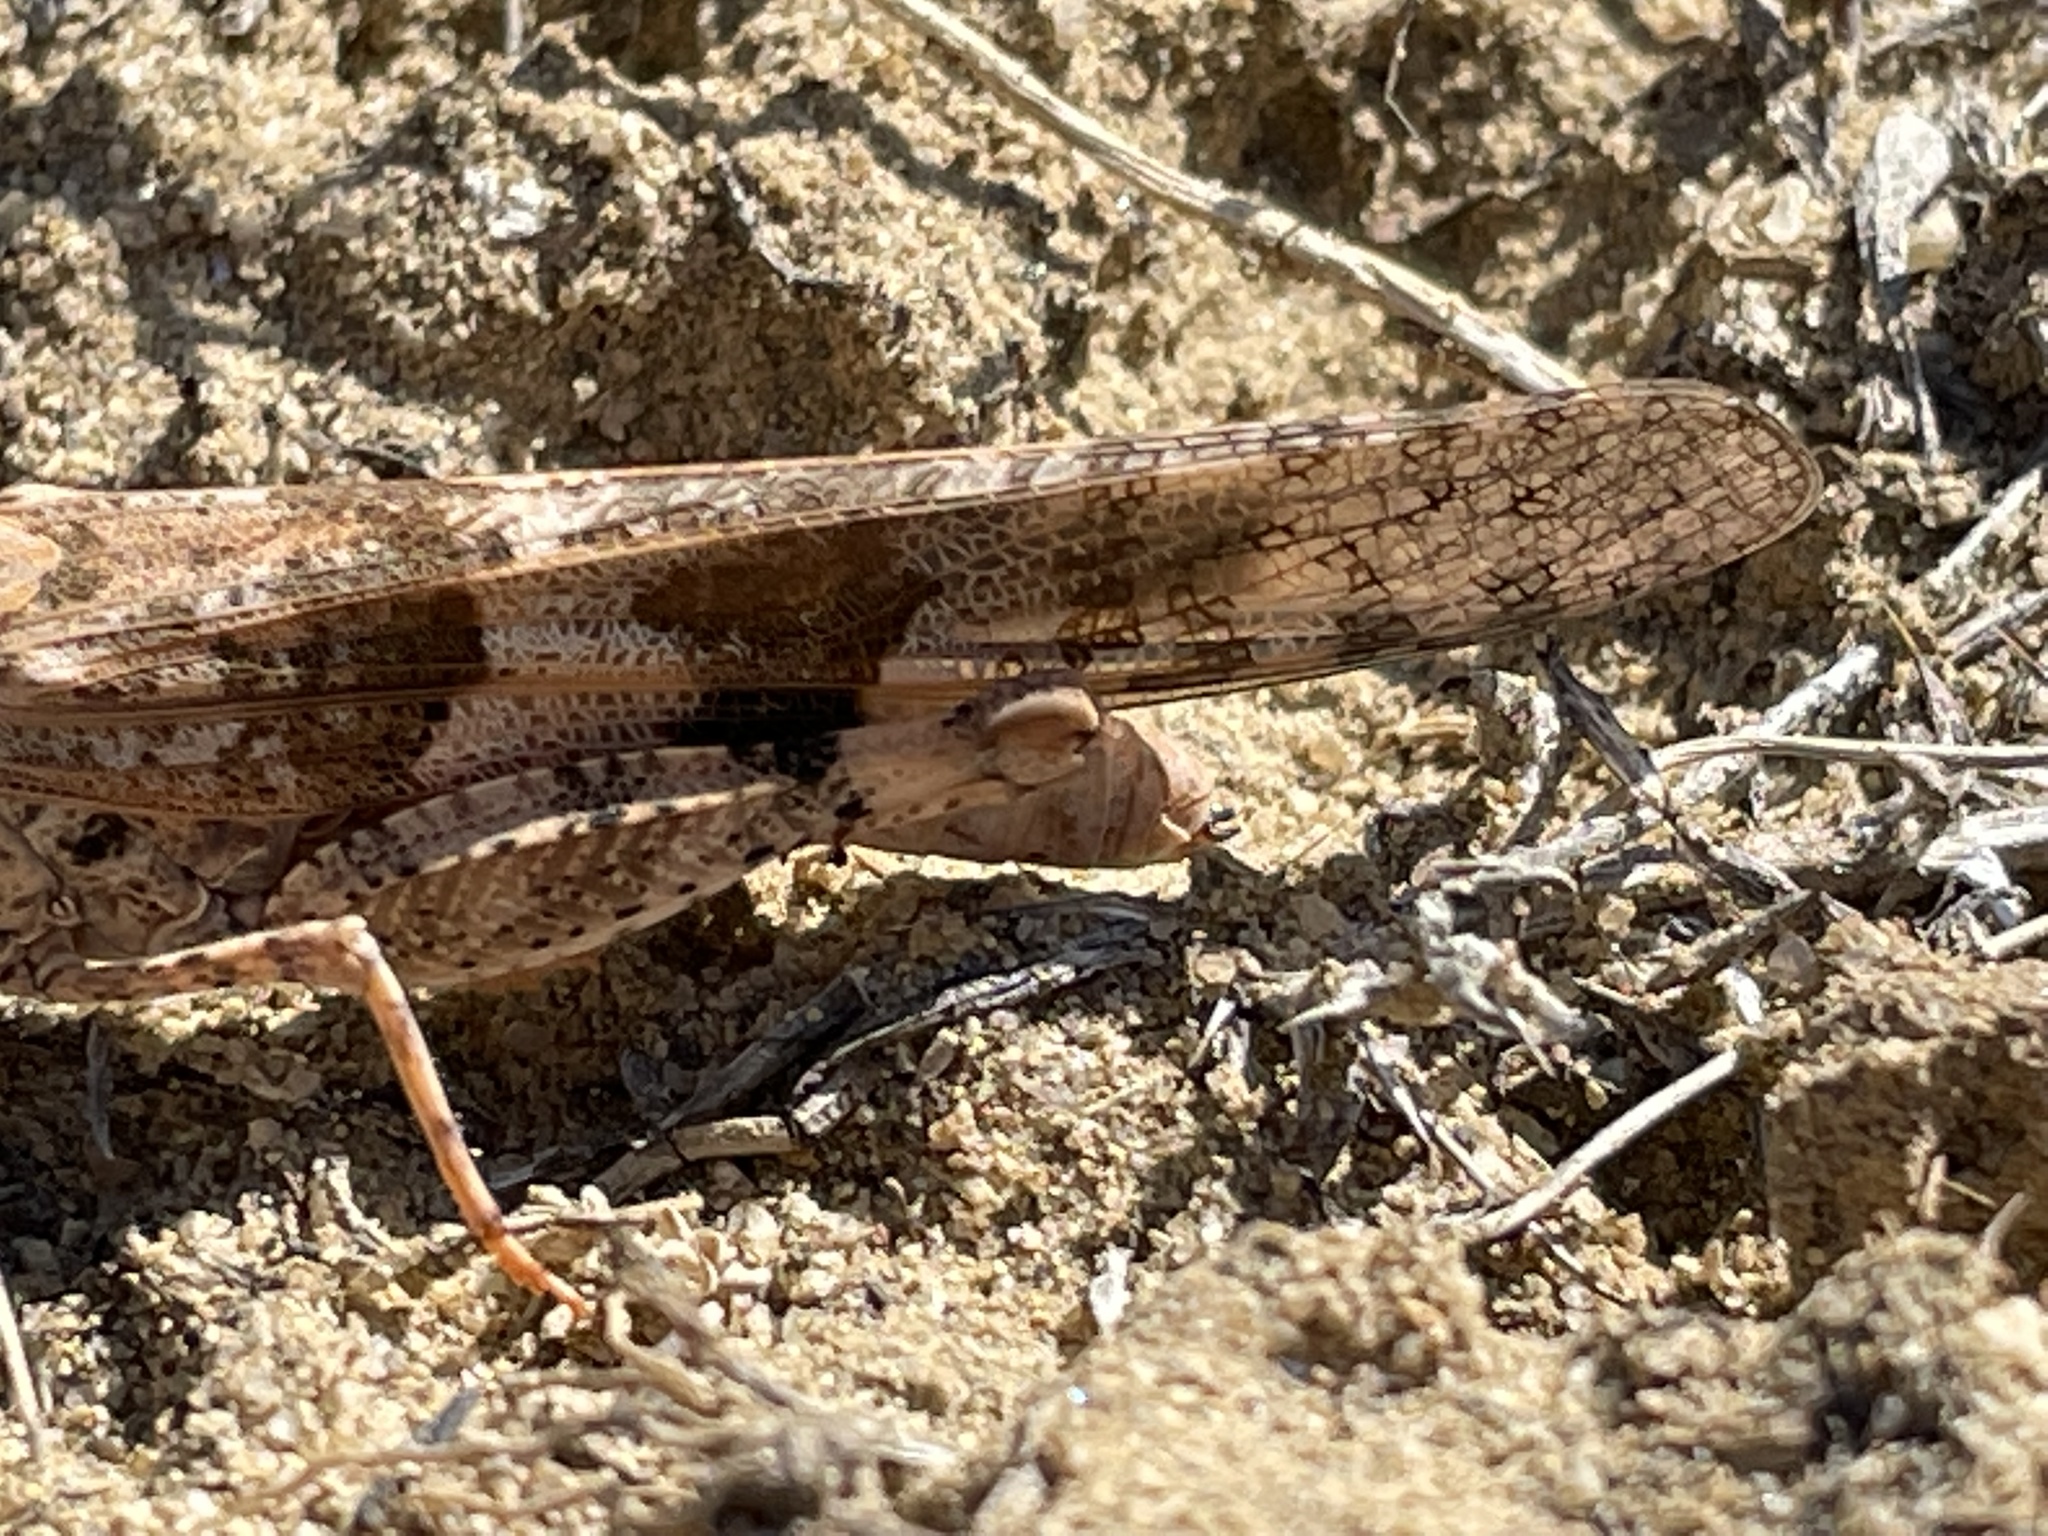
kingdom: Animalia
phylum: Arthropoda
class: Insecta
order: Orthoptera
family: Acrididae
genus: Trimerotropis
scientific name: Trimerotropis pallidipennis
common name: Pallid-winged grasshopper
